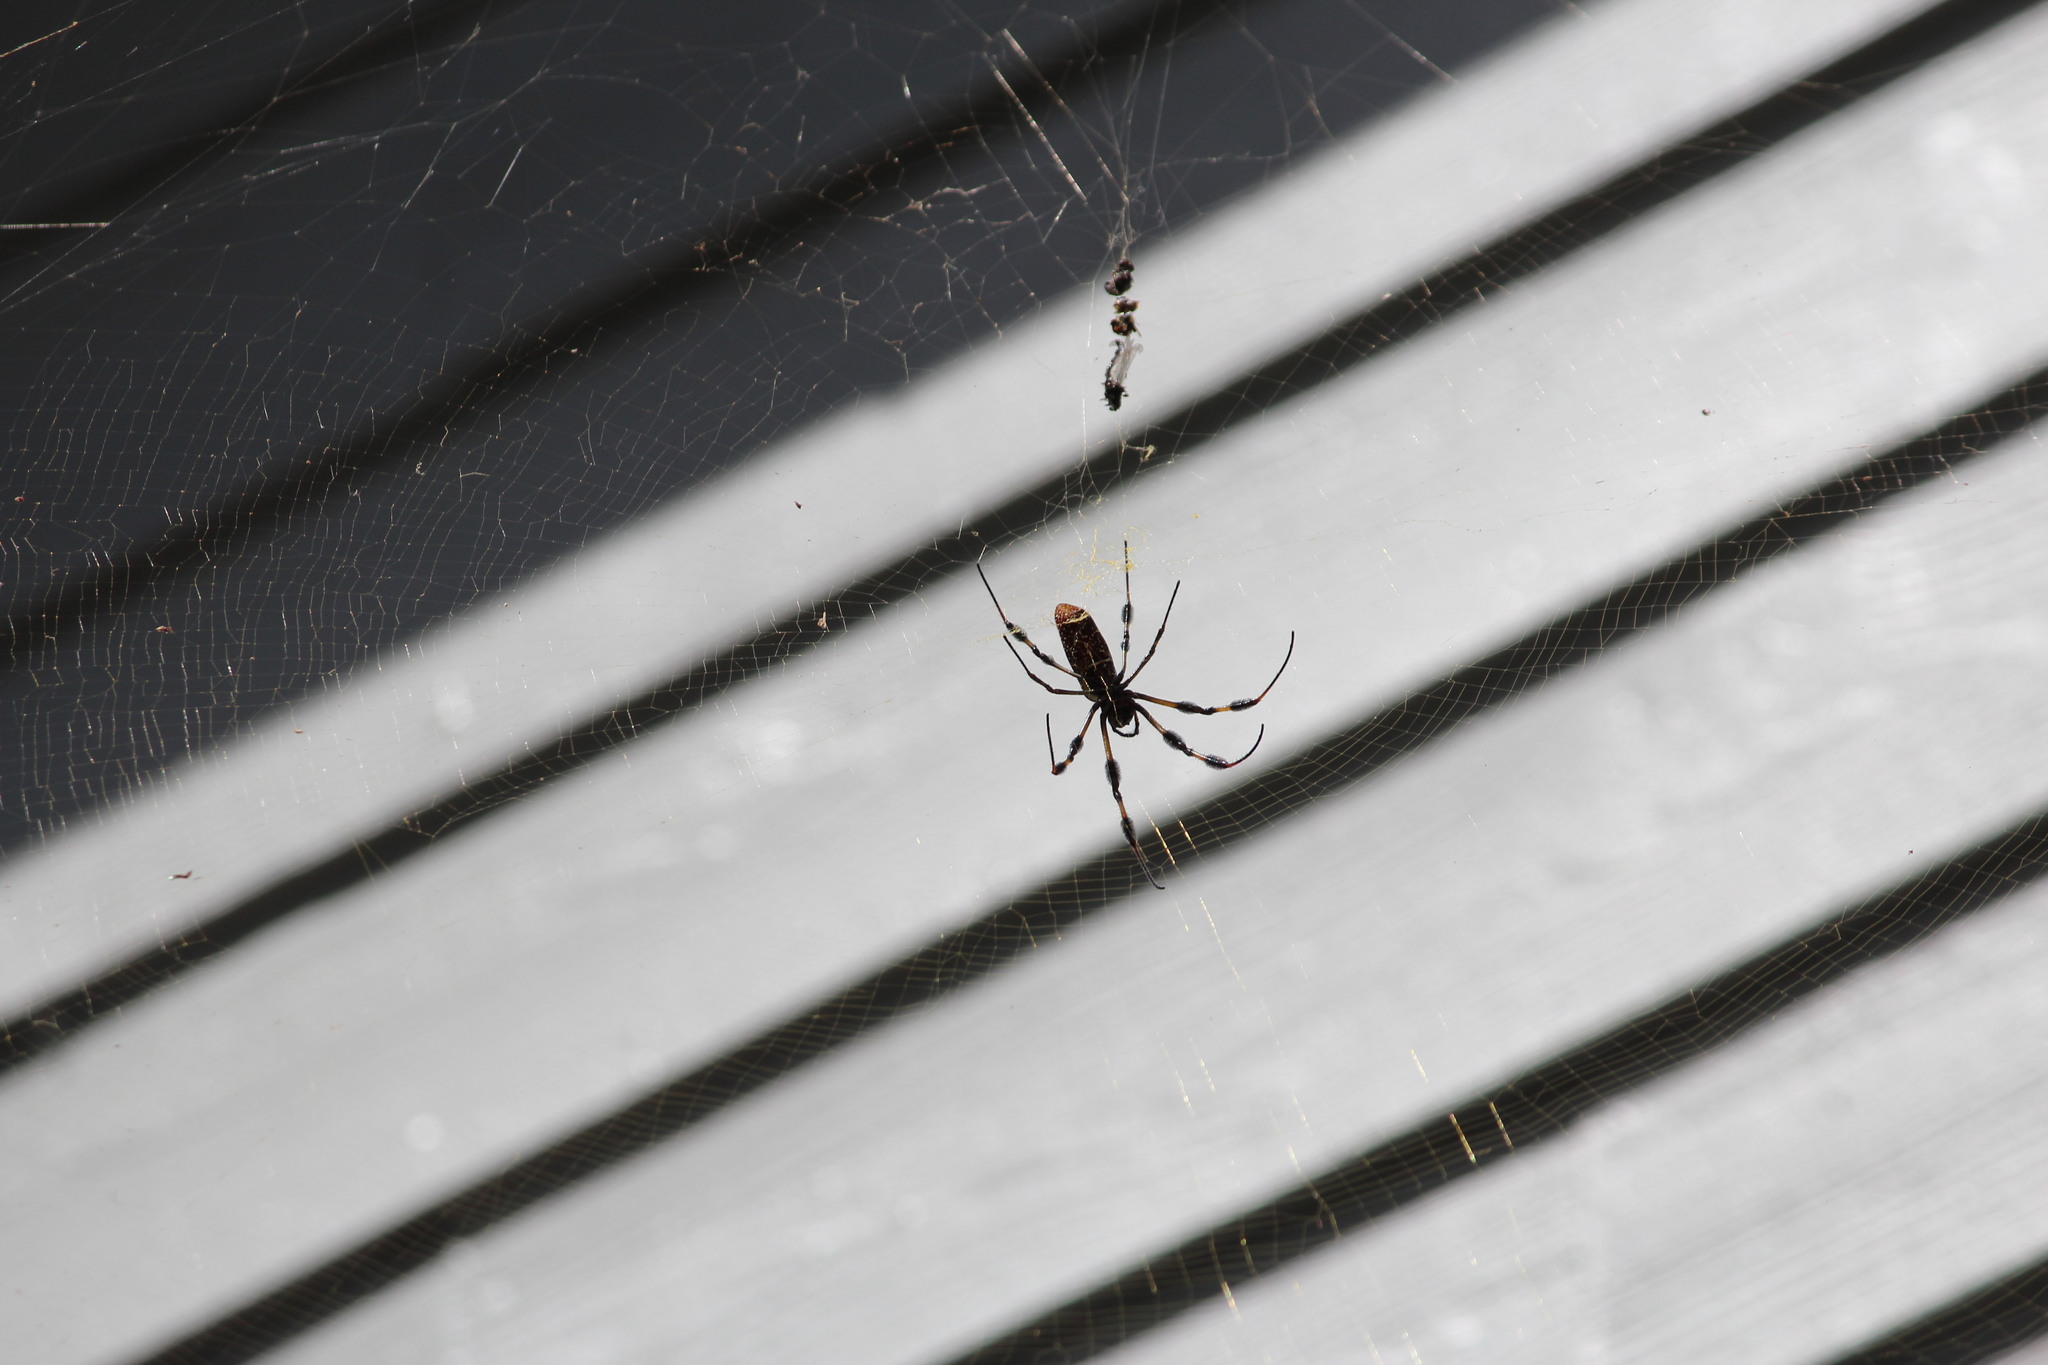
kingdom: Animalia
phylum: Arthropoda
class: Arachnida
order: Araneae
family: Araneidae
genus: Trichonephila
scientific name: Trichonephila clavipes
